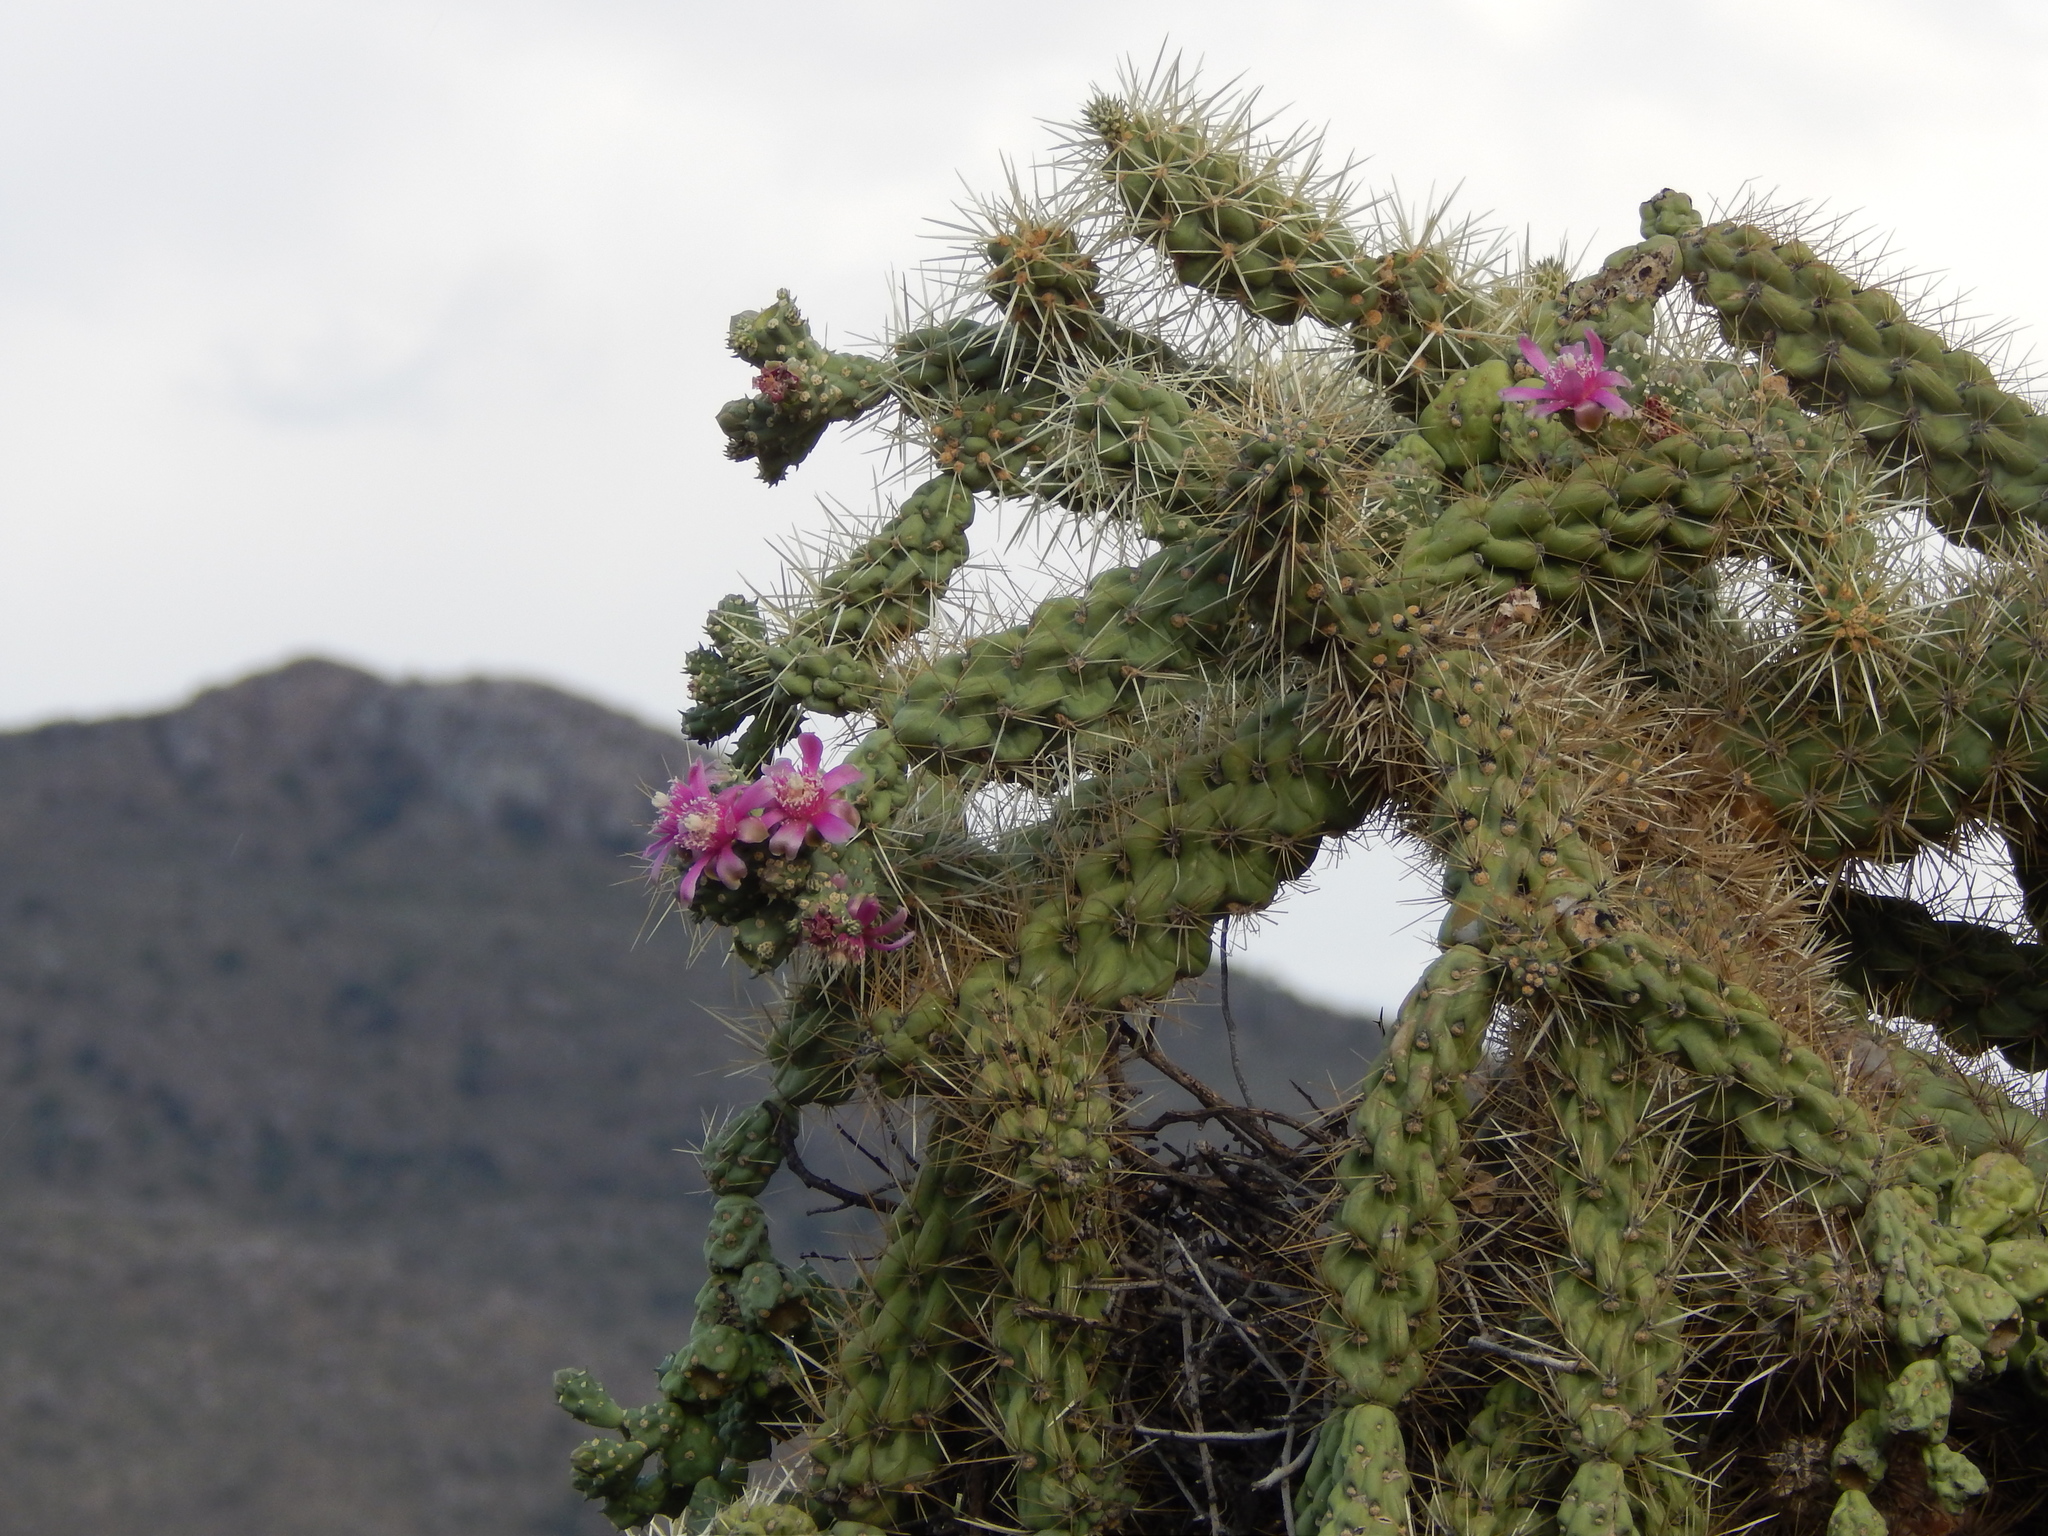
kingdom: Plantae
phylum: Tracheophyta
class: Magnoliopsida
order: Caryophyllales
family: Cactaceae
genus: Cylindropuntia
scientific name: Cylindropuntia fulgida
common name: Jumping cholla
